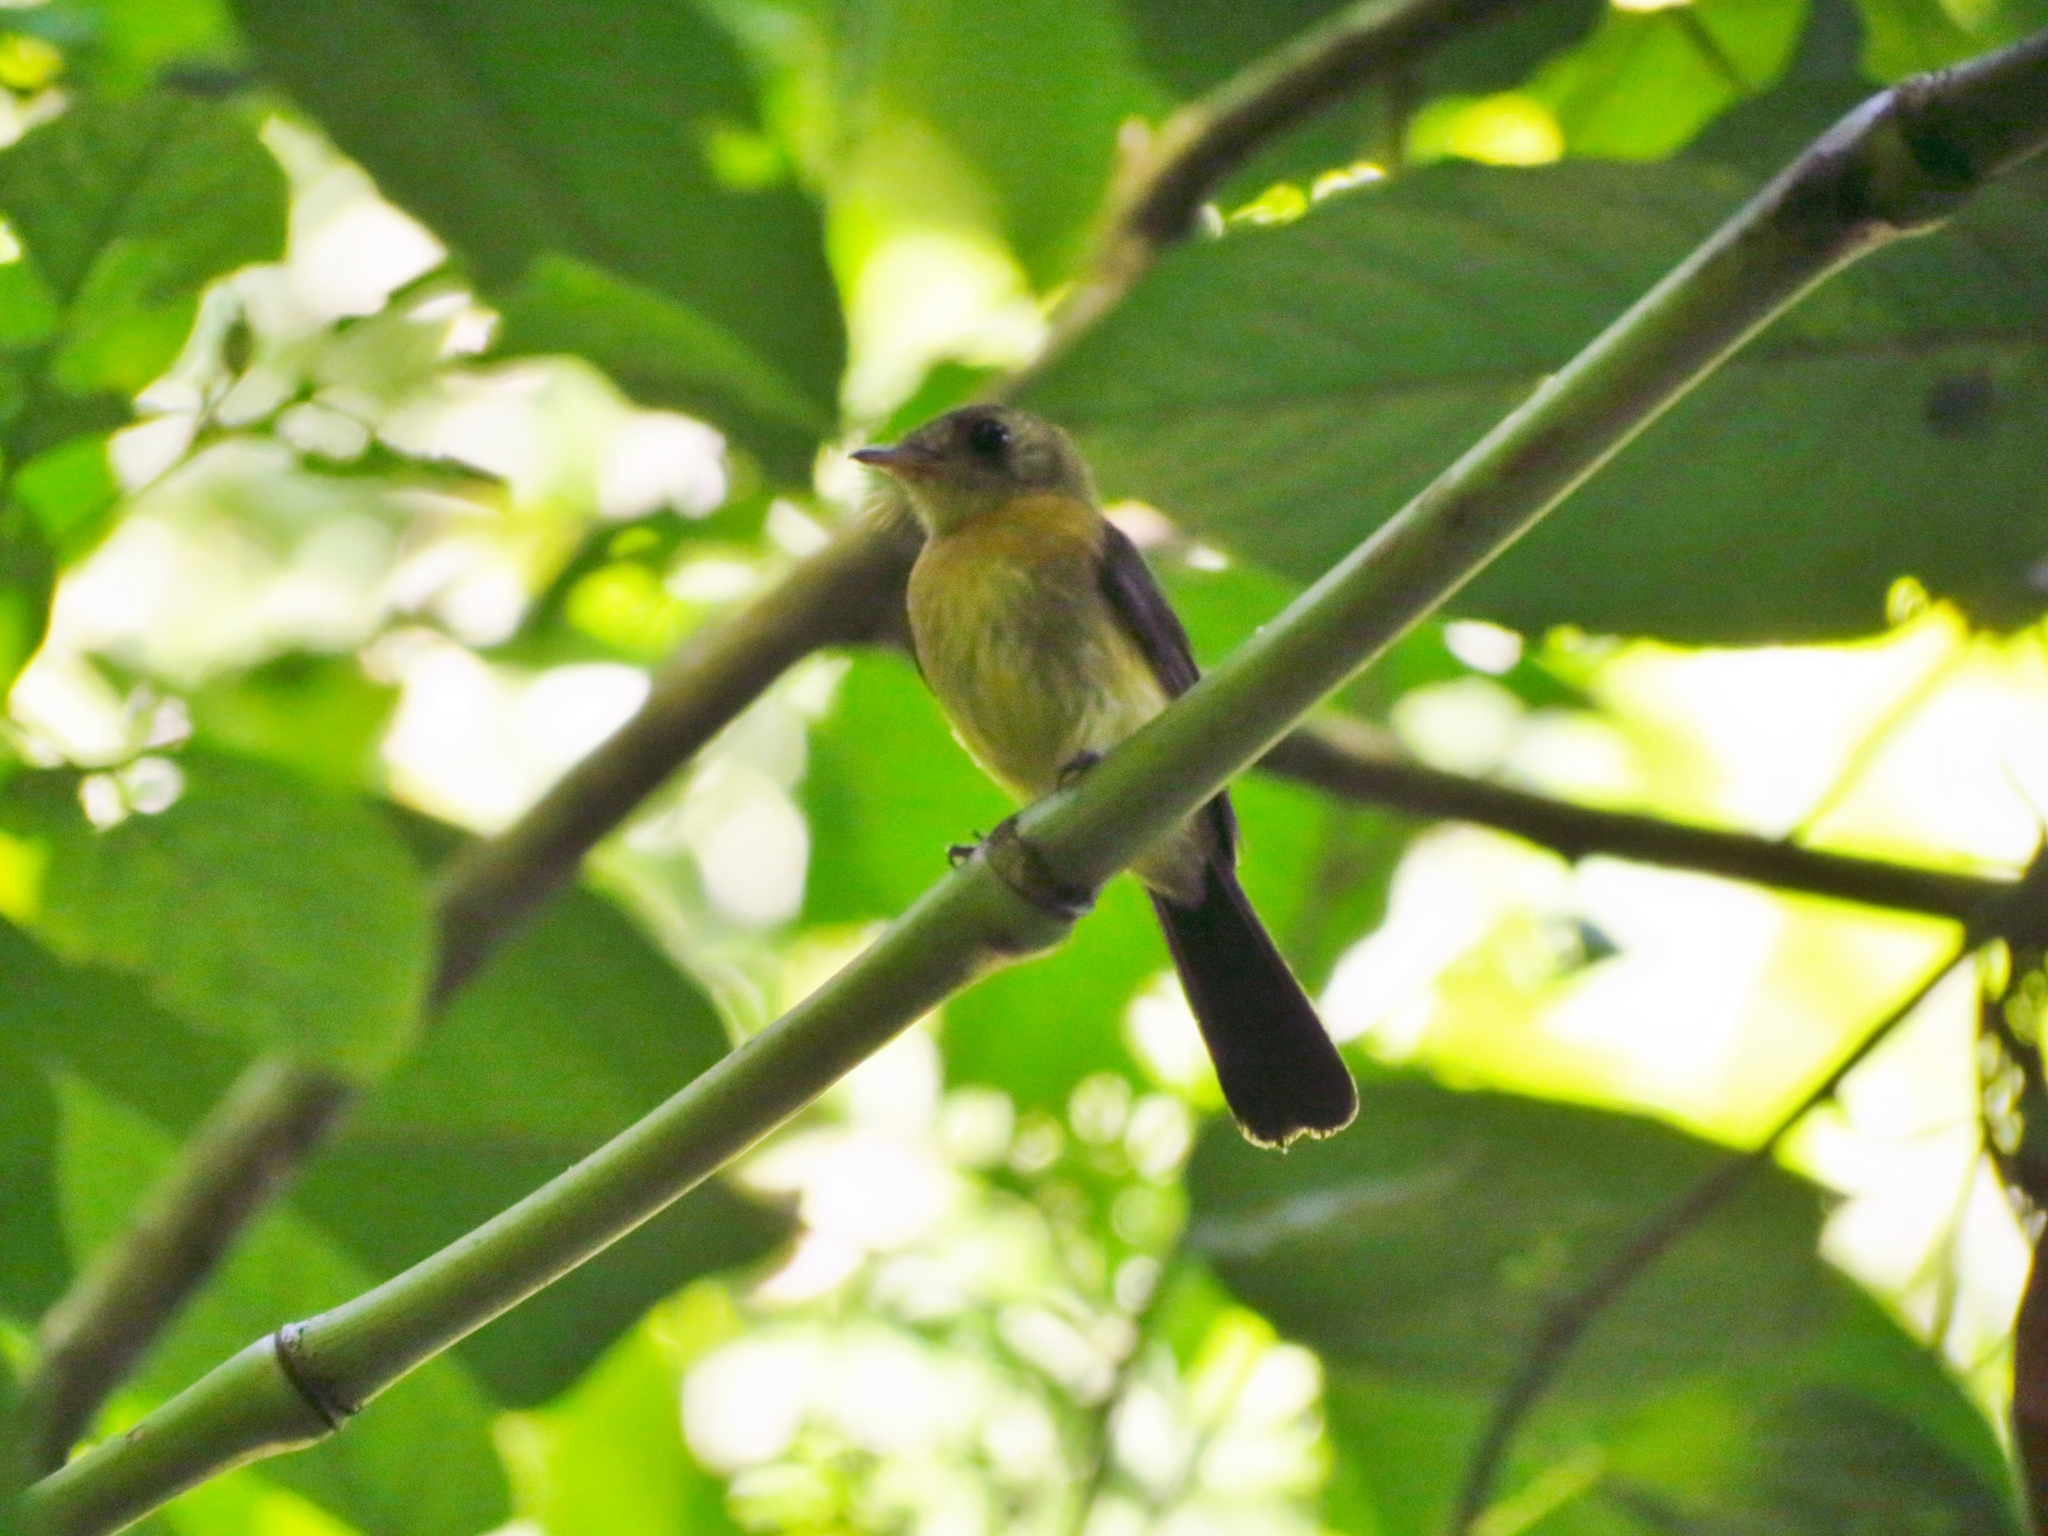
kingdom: Animalia
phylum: Chordata
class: Aves
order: Passeriformes
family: Tyrannidae
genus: Myiobius
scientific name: Myiobius barbatus
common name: Whiskered myiobius
